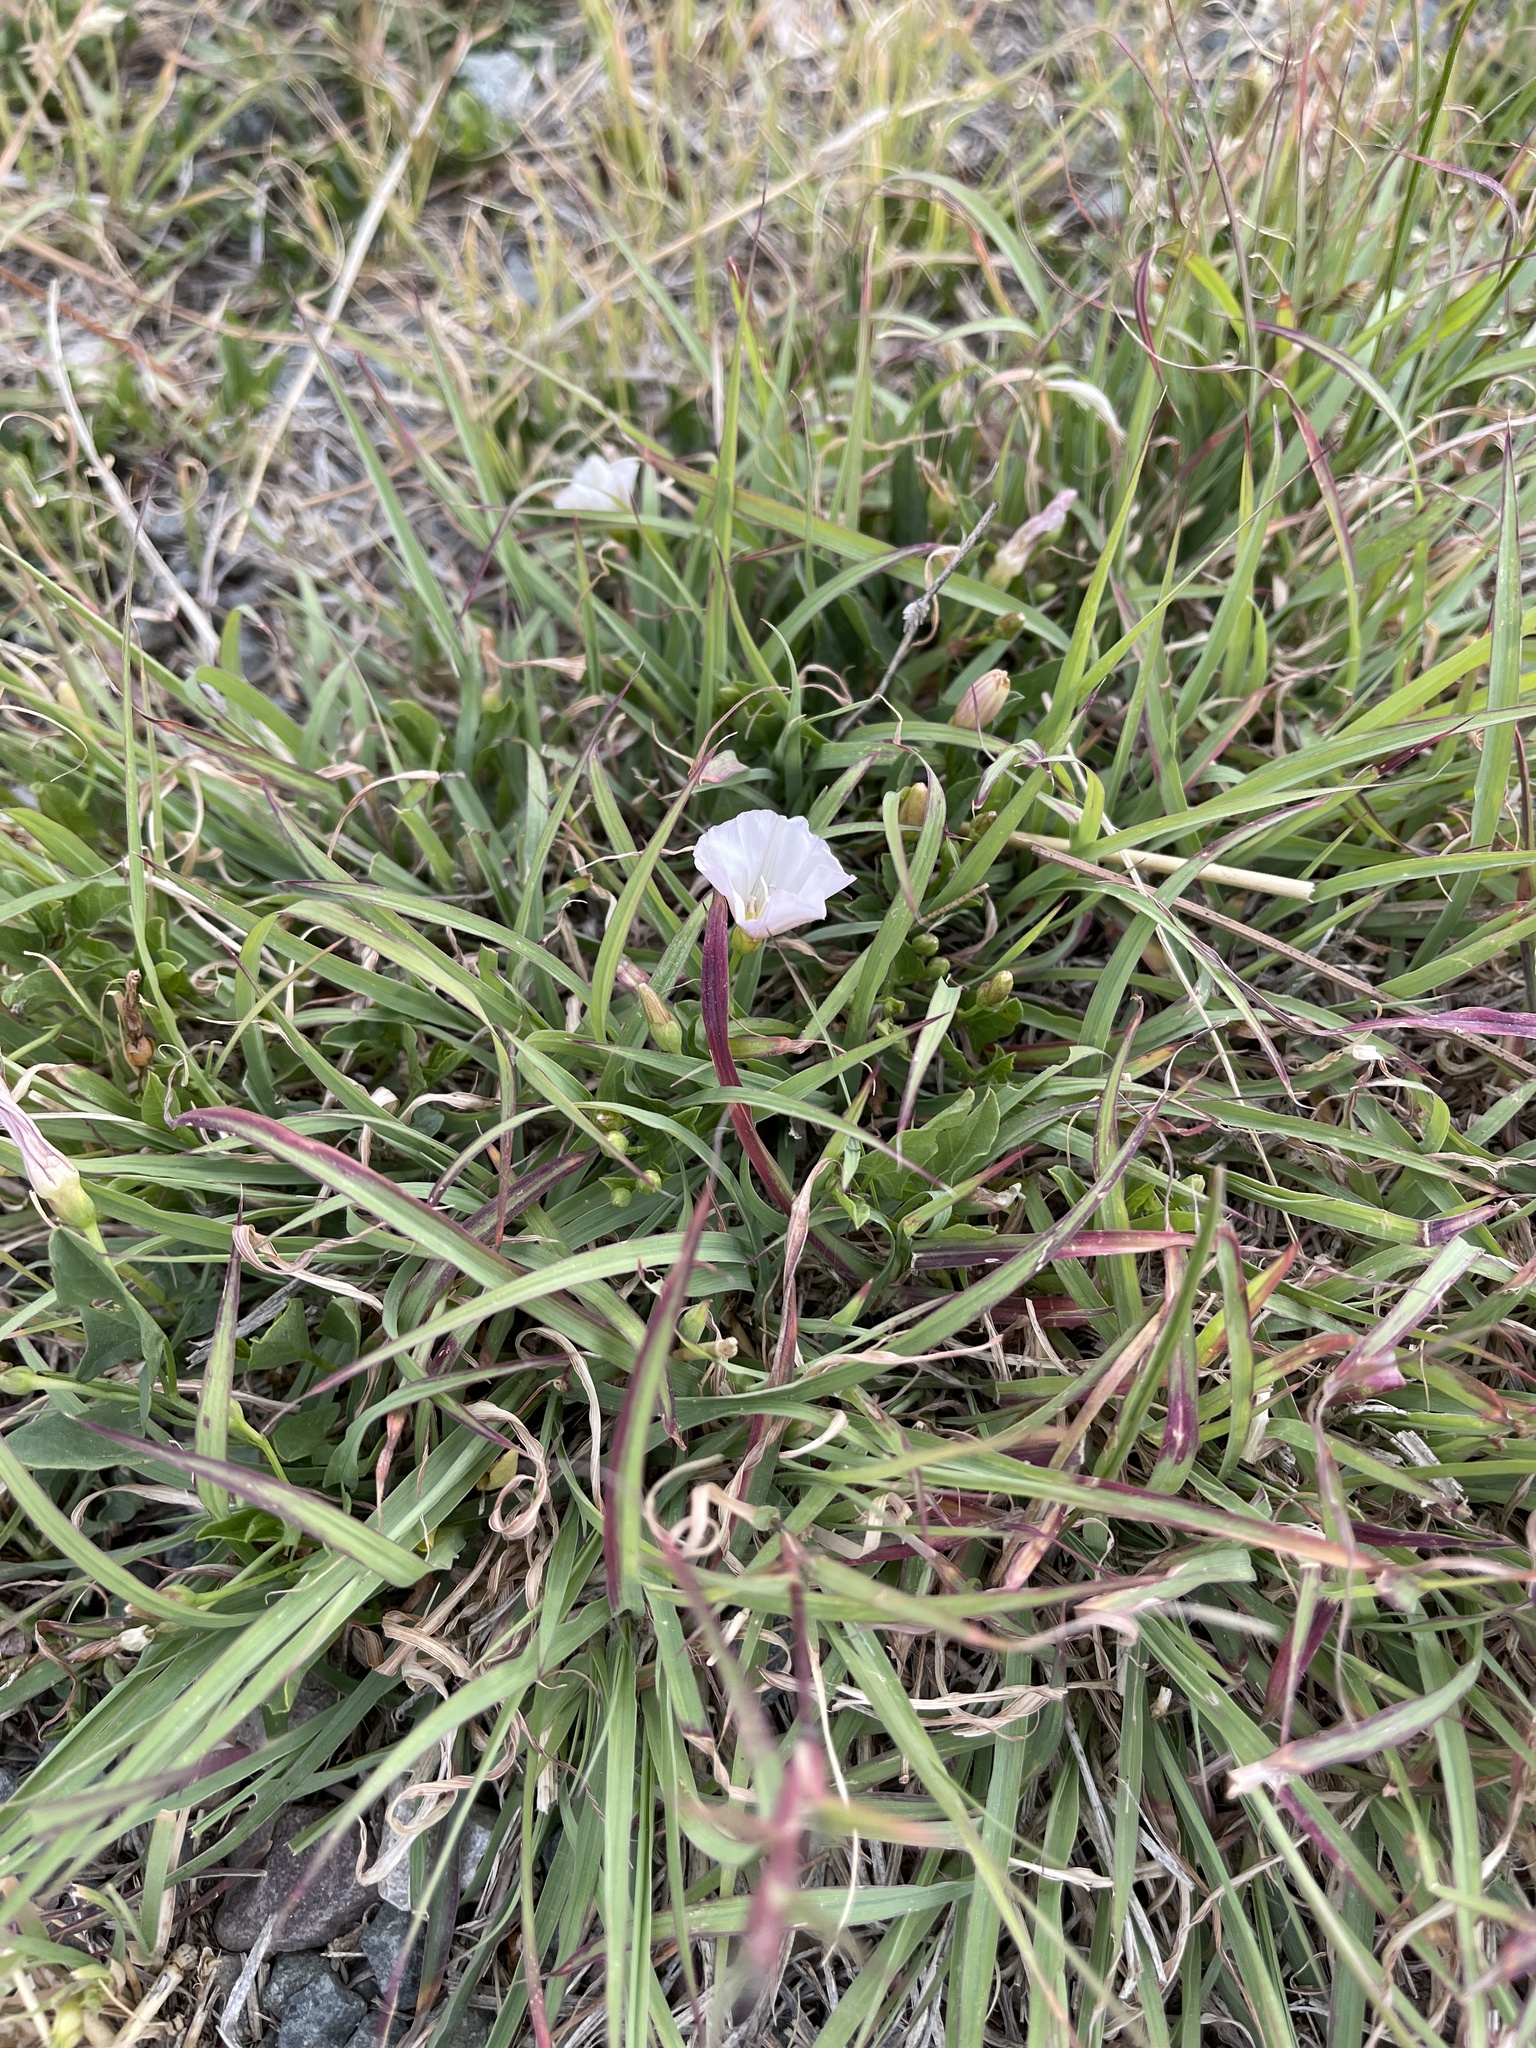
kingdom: Plantae
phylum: Tracheophyta
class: Magnoliopsida
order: Solanales
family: Convolvulaceae
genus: Convolvulus
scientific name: Convolvulus arvensis
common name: Field bindweed
